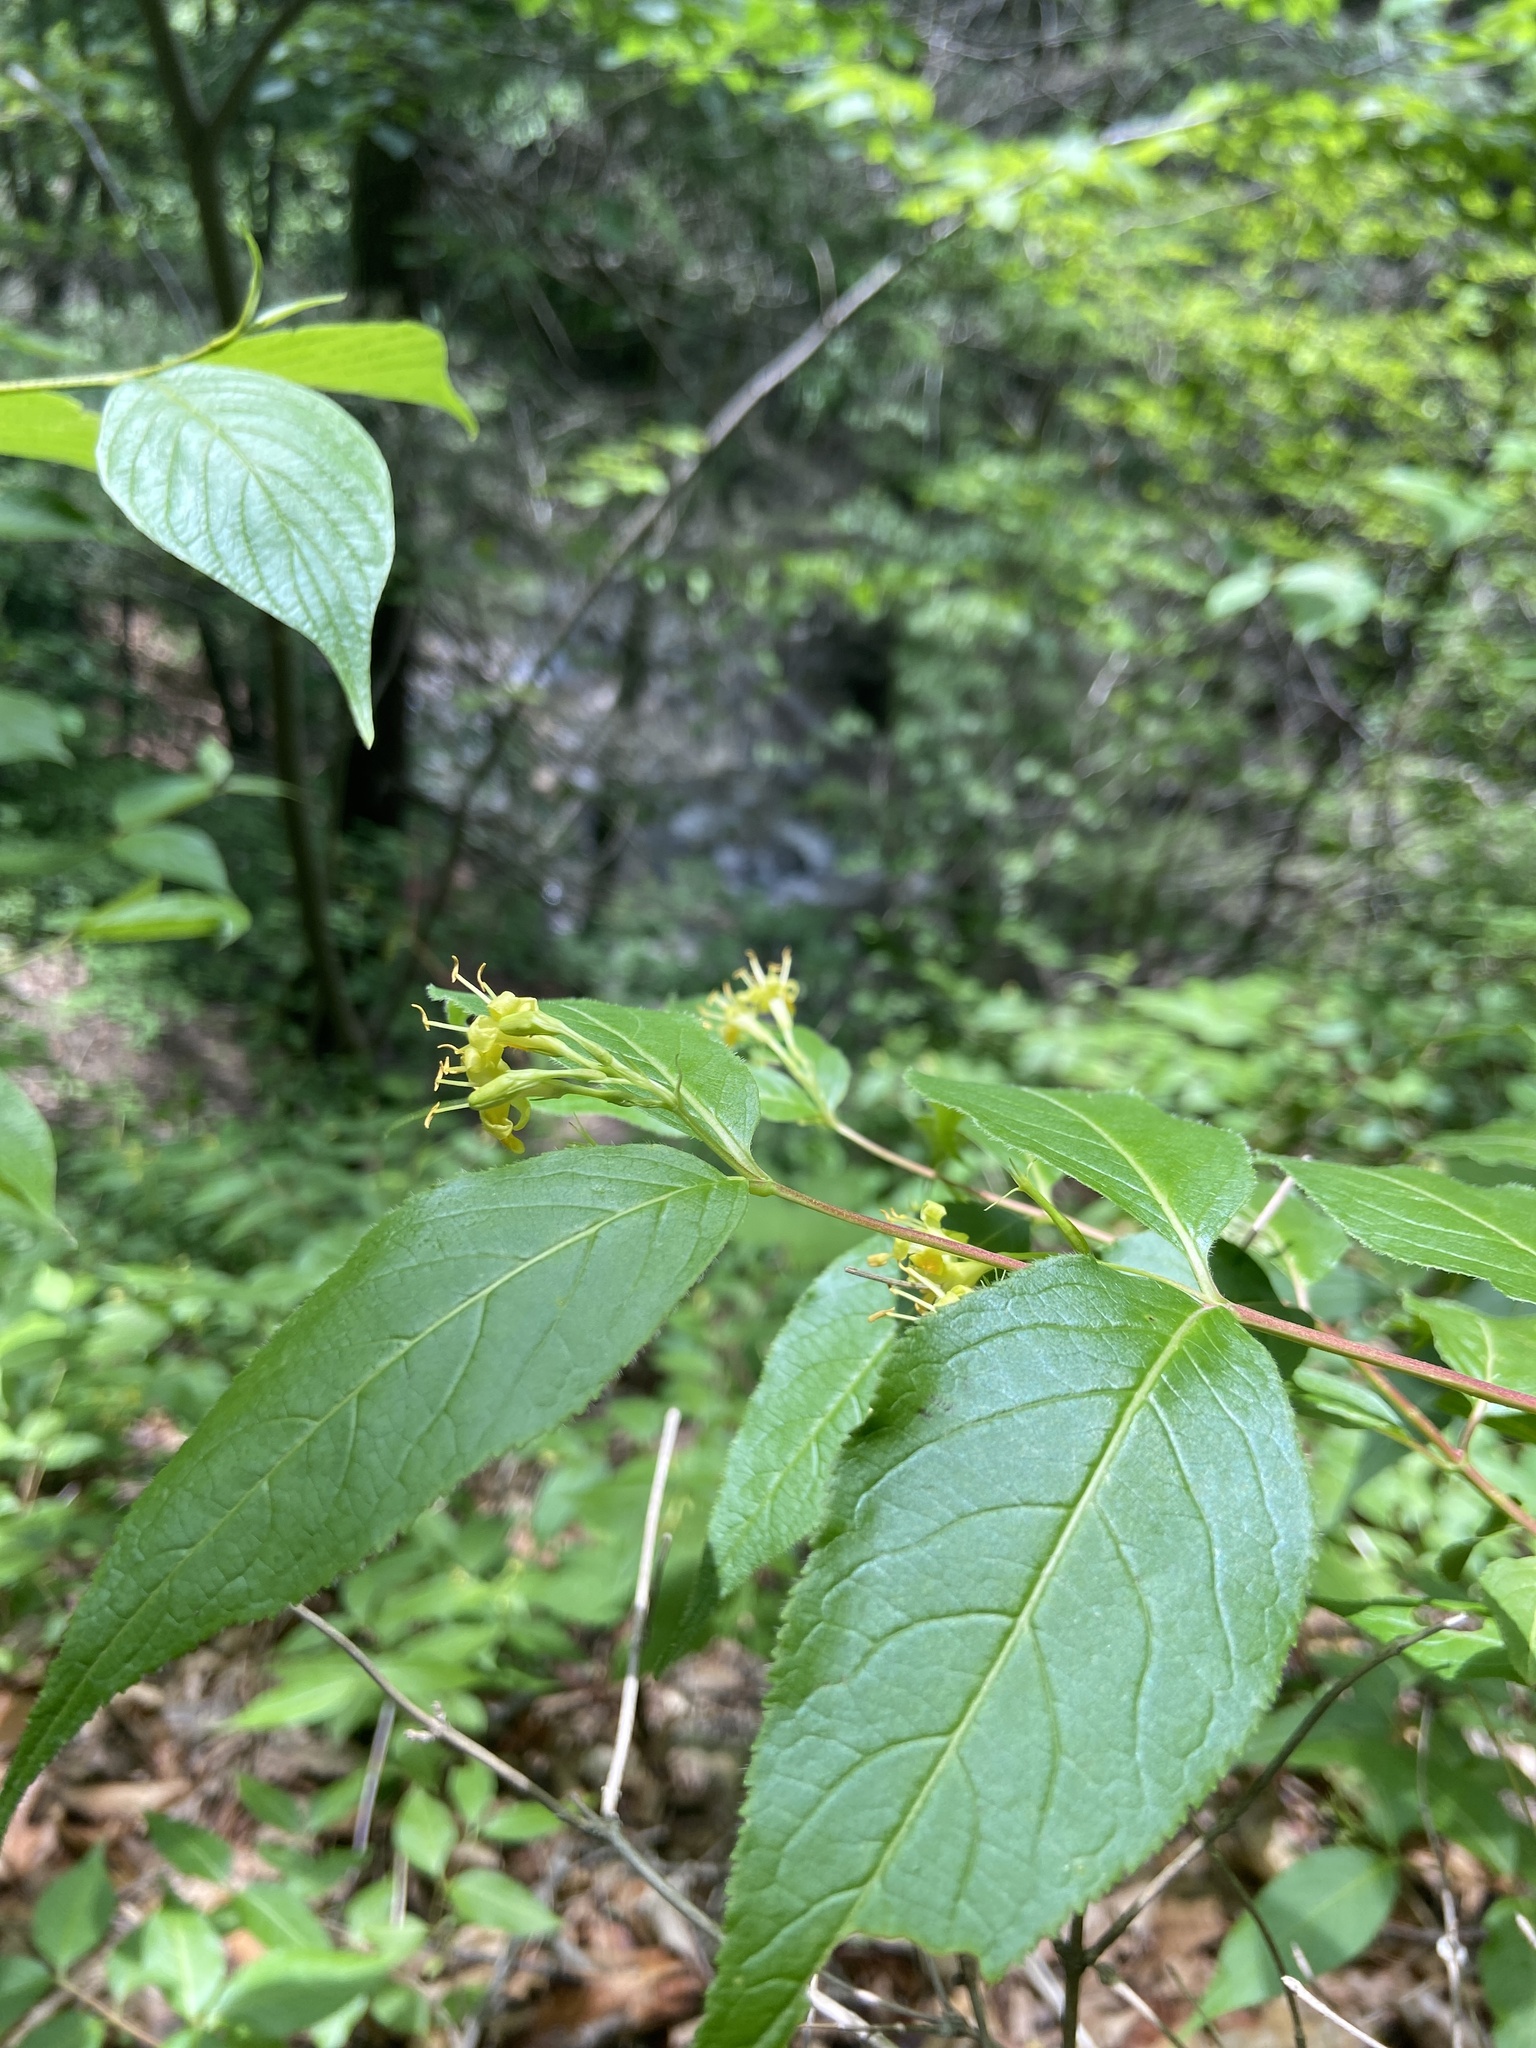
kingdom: Plantae
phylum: Tracheophyta
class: Magnoliopsida
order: Dipsacales
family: Caprifoliaceae
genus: Diervilla
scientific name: Diervilla lonicera
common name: Bush-honeysuckle
